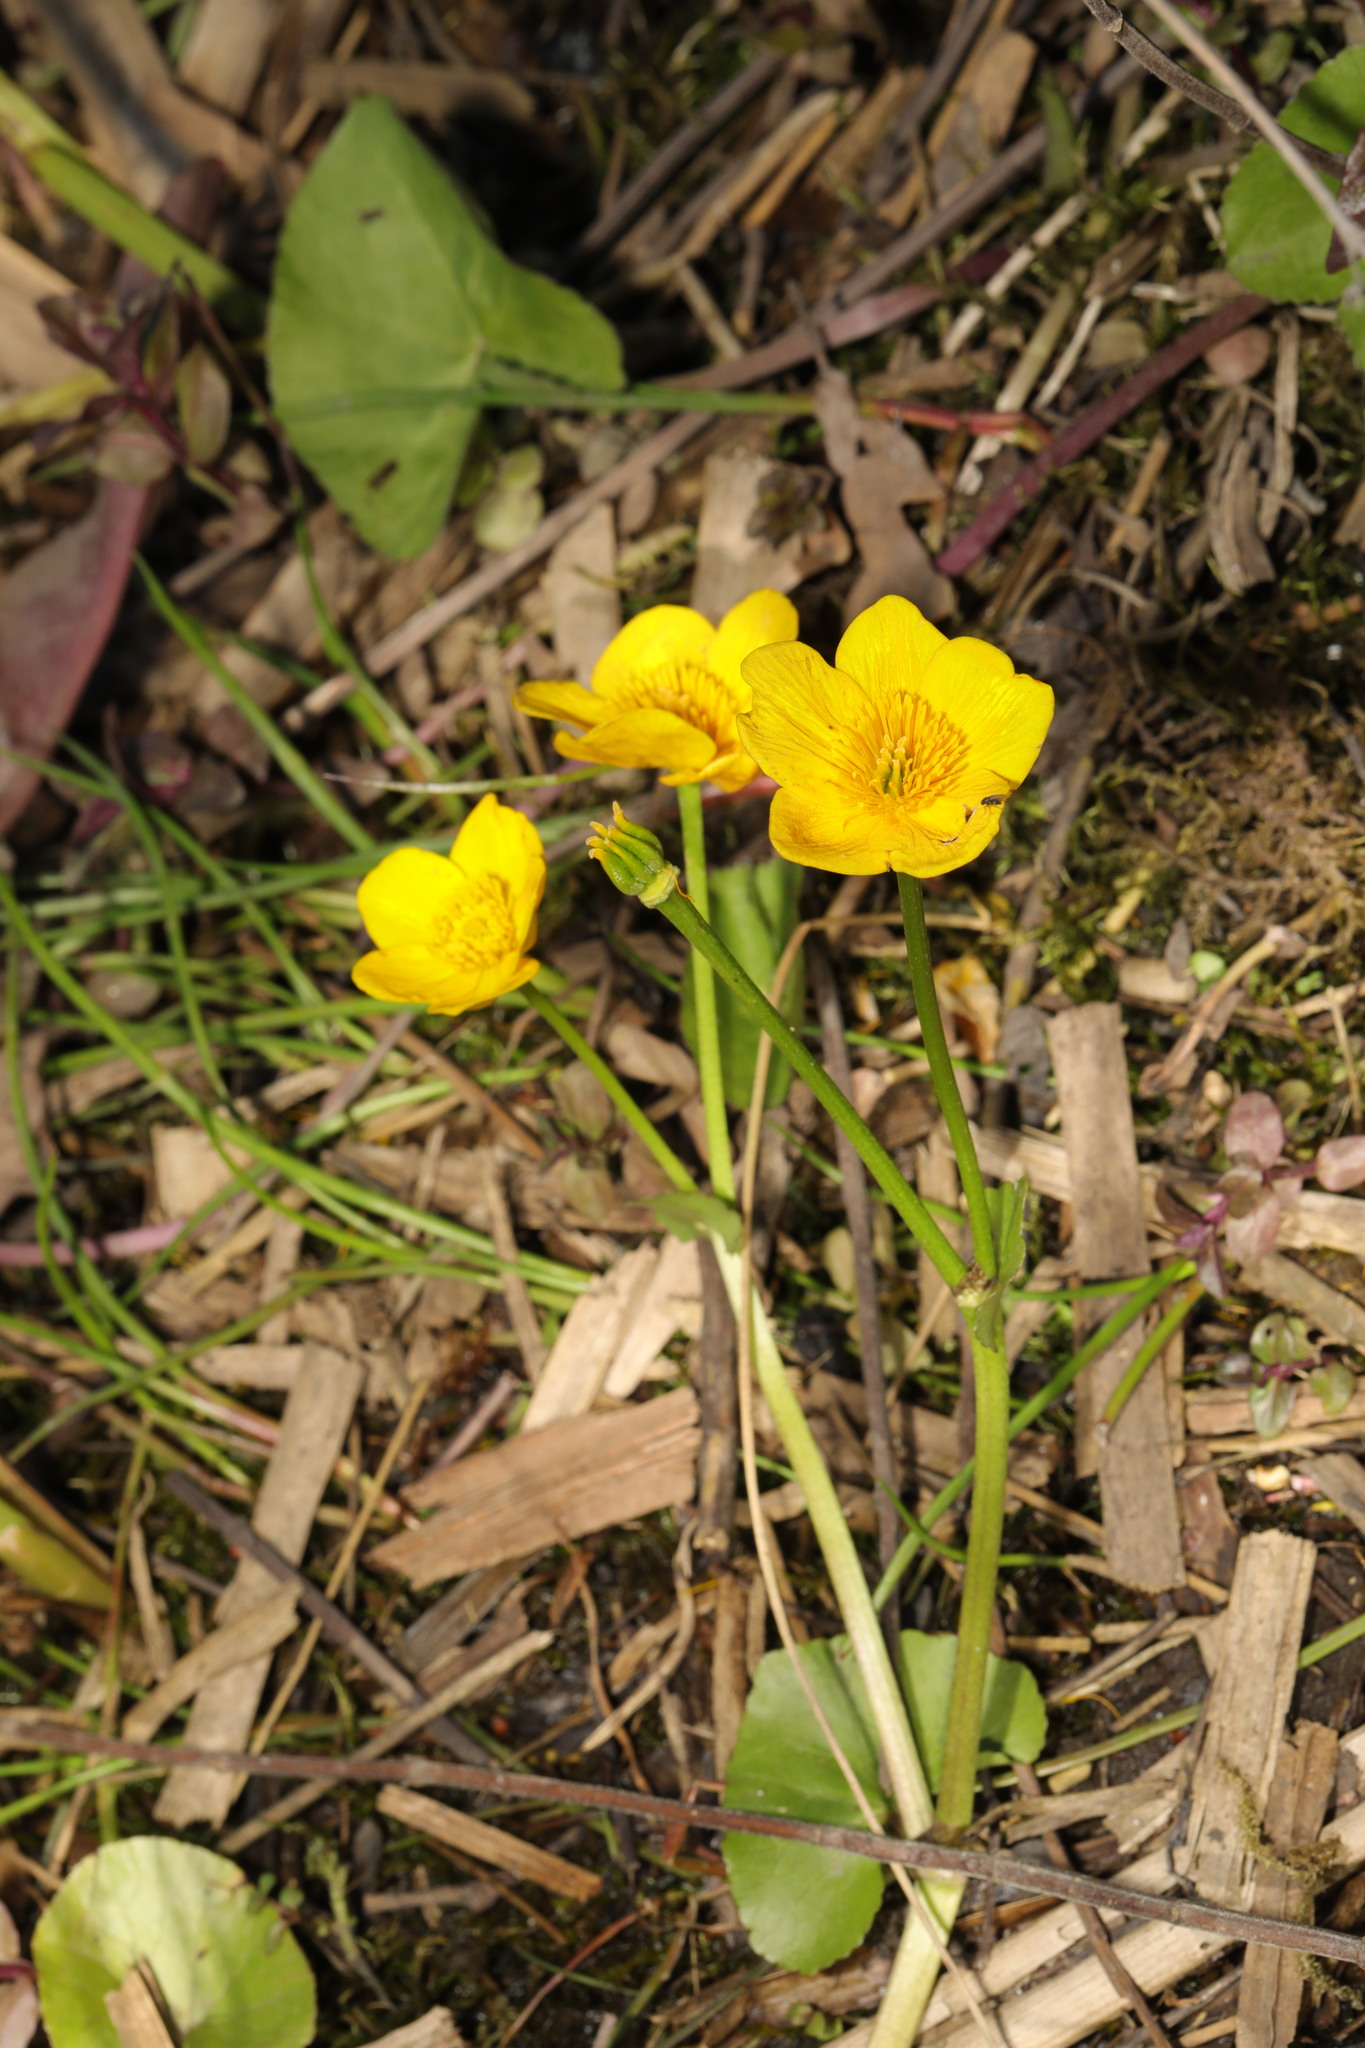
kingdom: Plantae
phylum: Tracheophyta
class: Magnoliopsida
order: Ranunculales
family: Ranunculaceae
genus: Caltha
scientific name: Caltha palustris
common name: Marsh marigold
